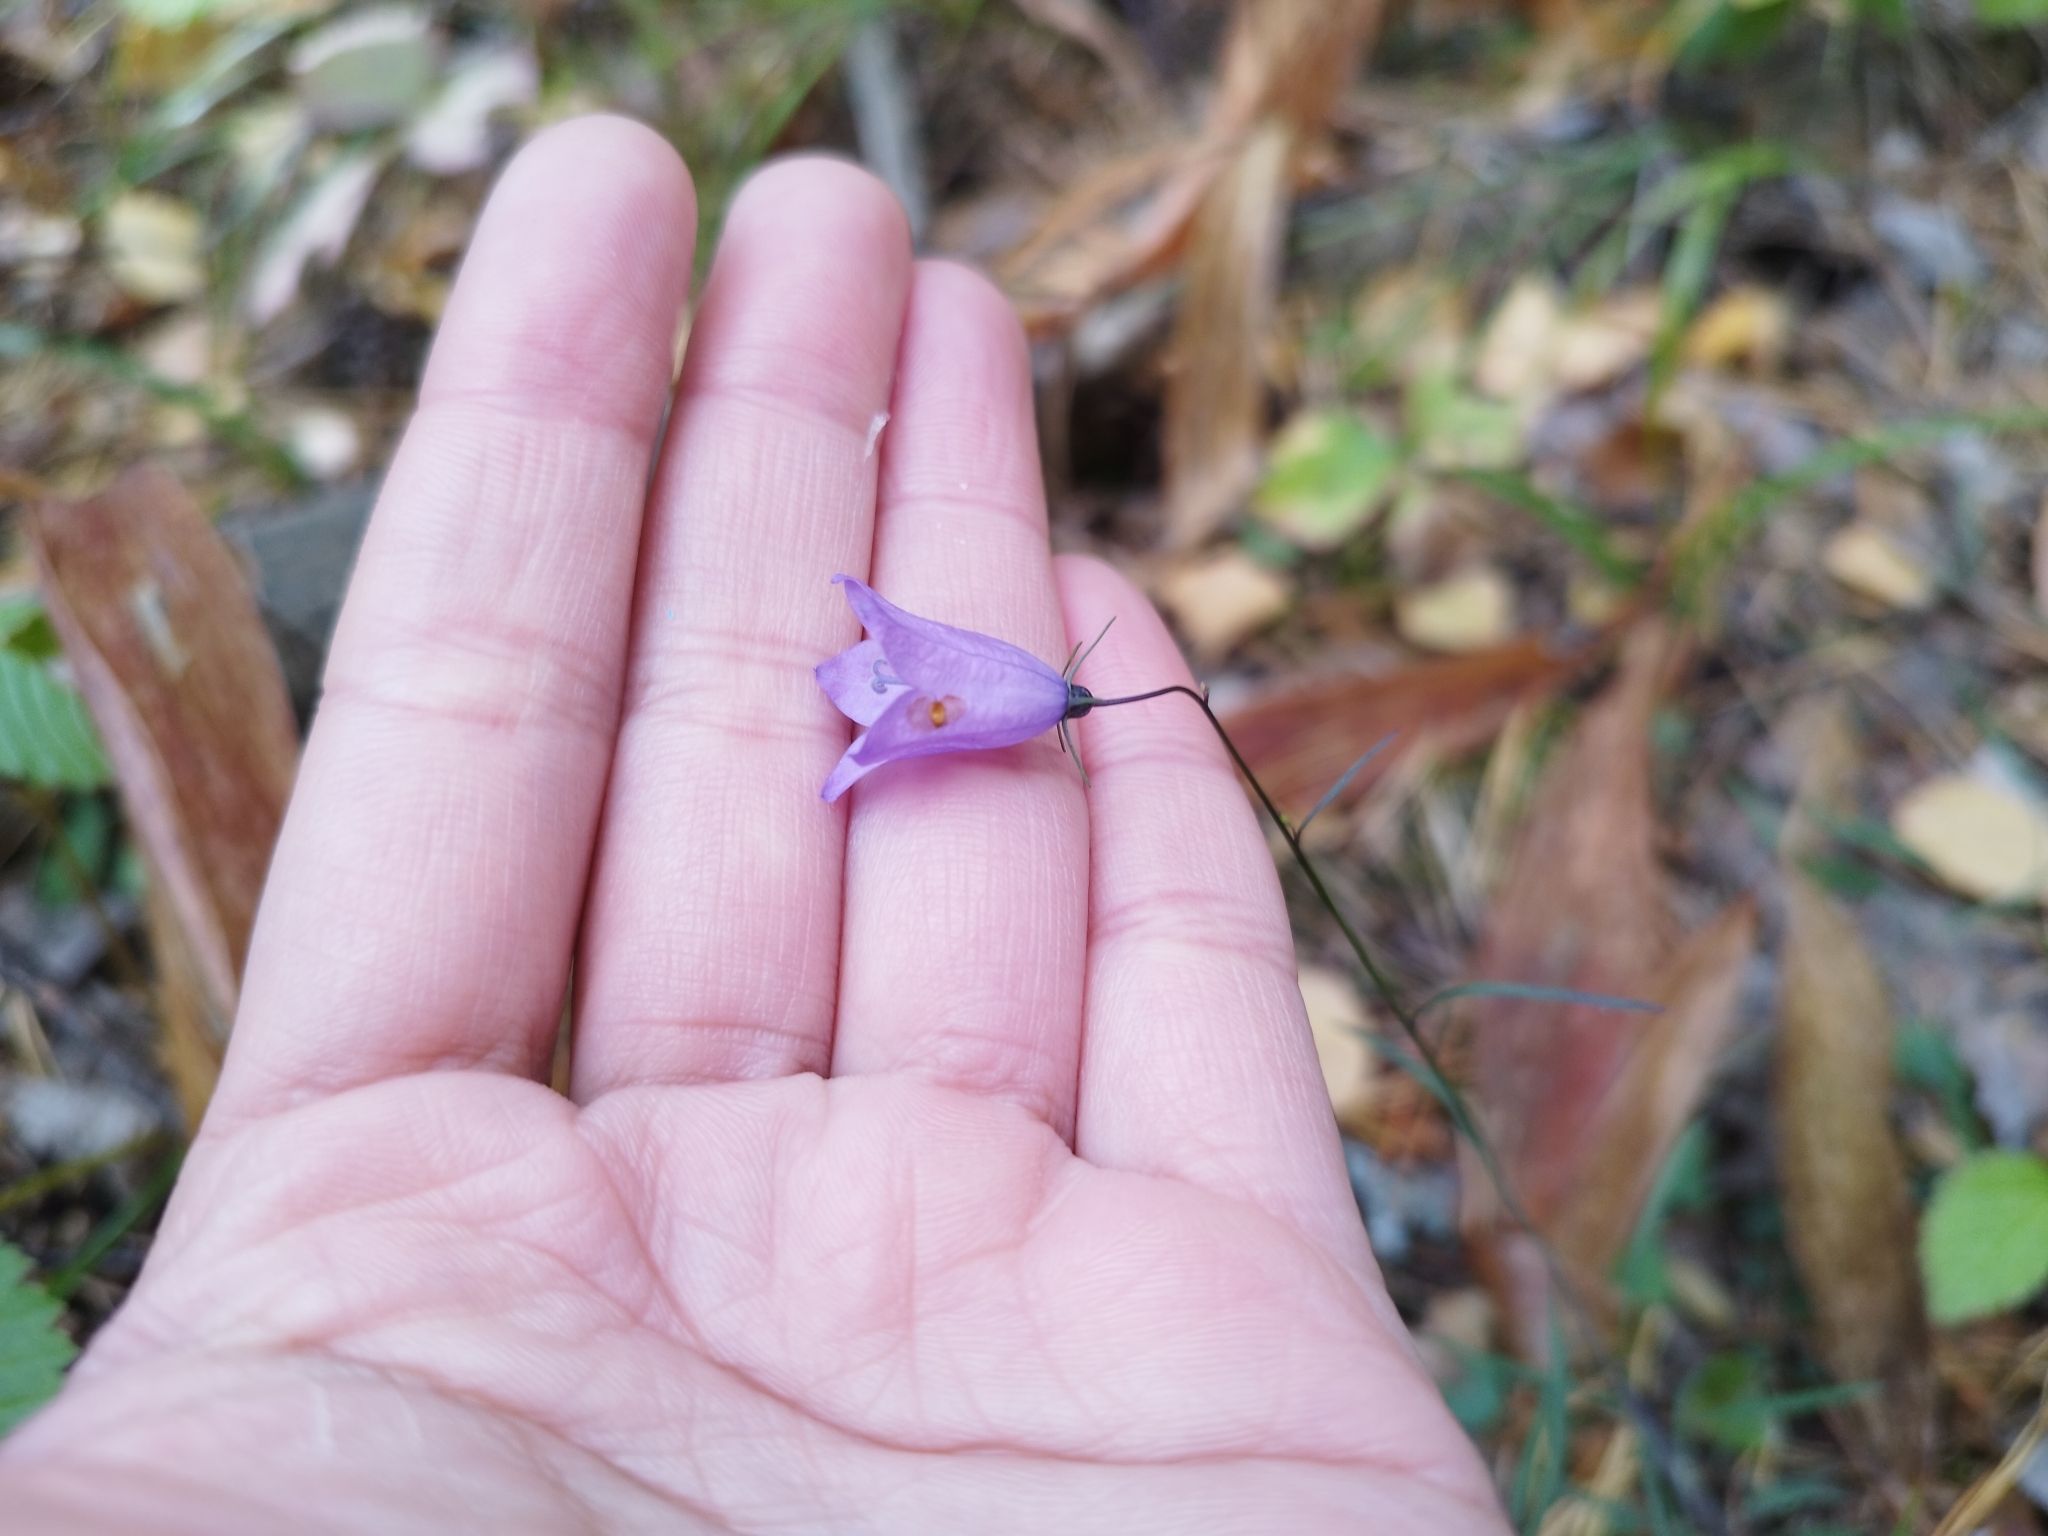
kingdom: Plantae
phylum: Tracheophyta
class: Magnoliopsida
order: Asterales
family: Campanulaceae
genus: Campanula
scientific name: Campanula rotundifolia
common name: Harebell
